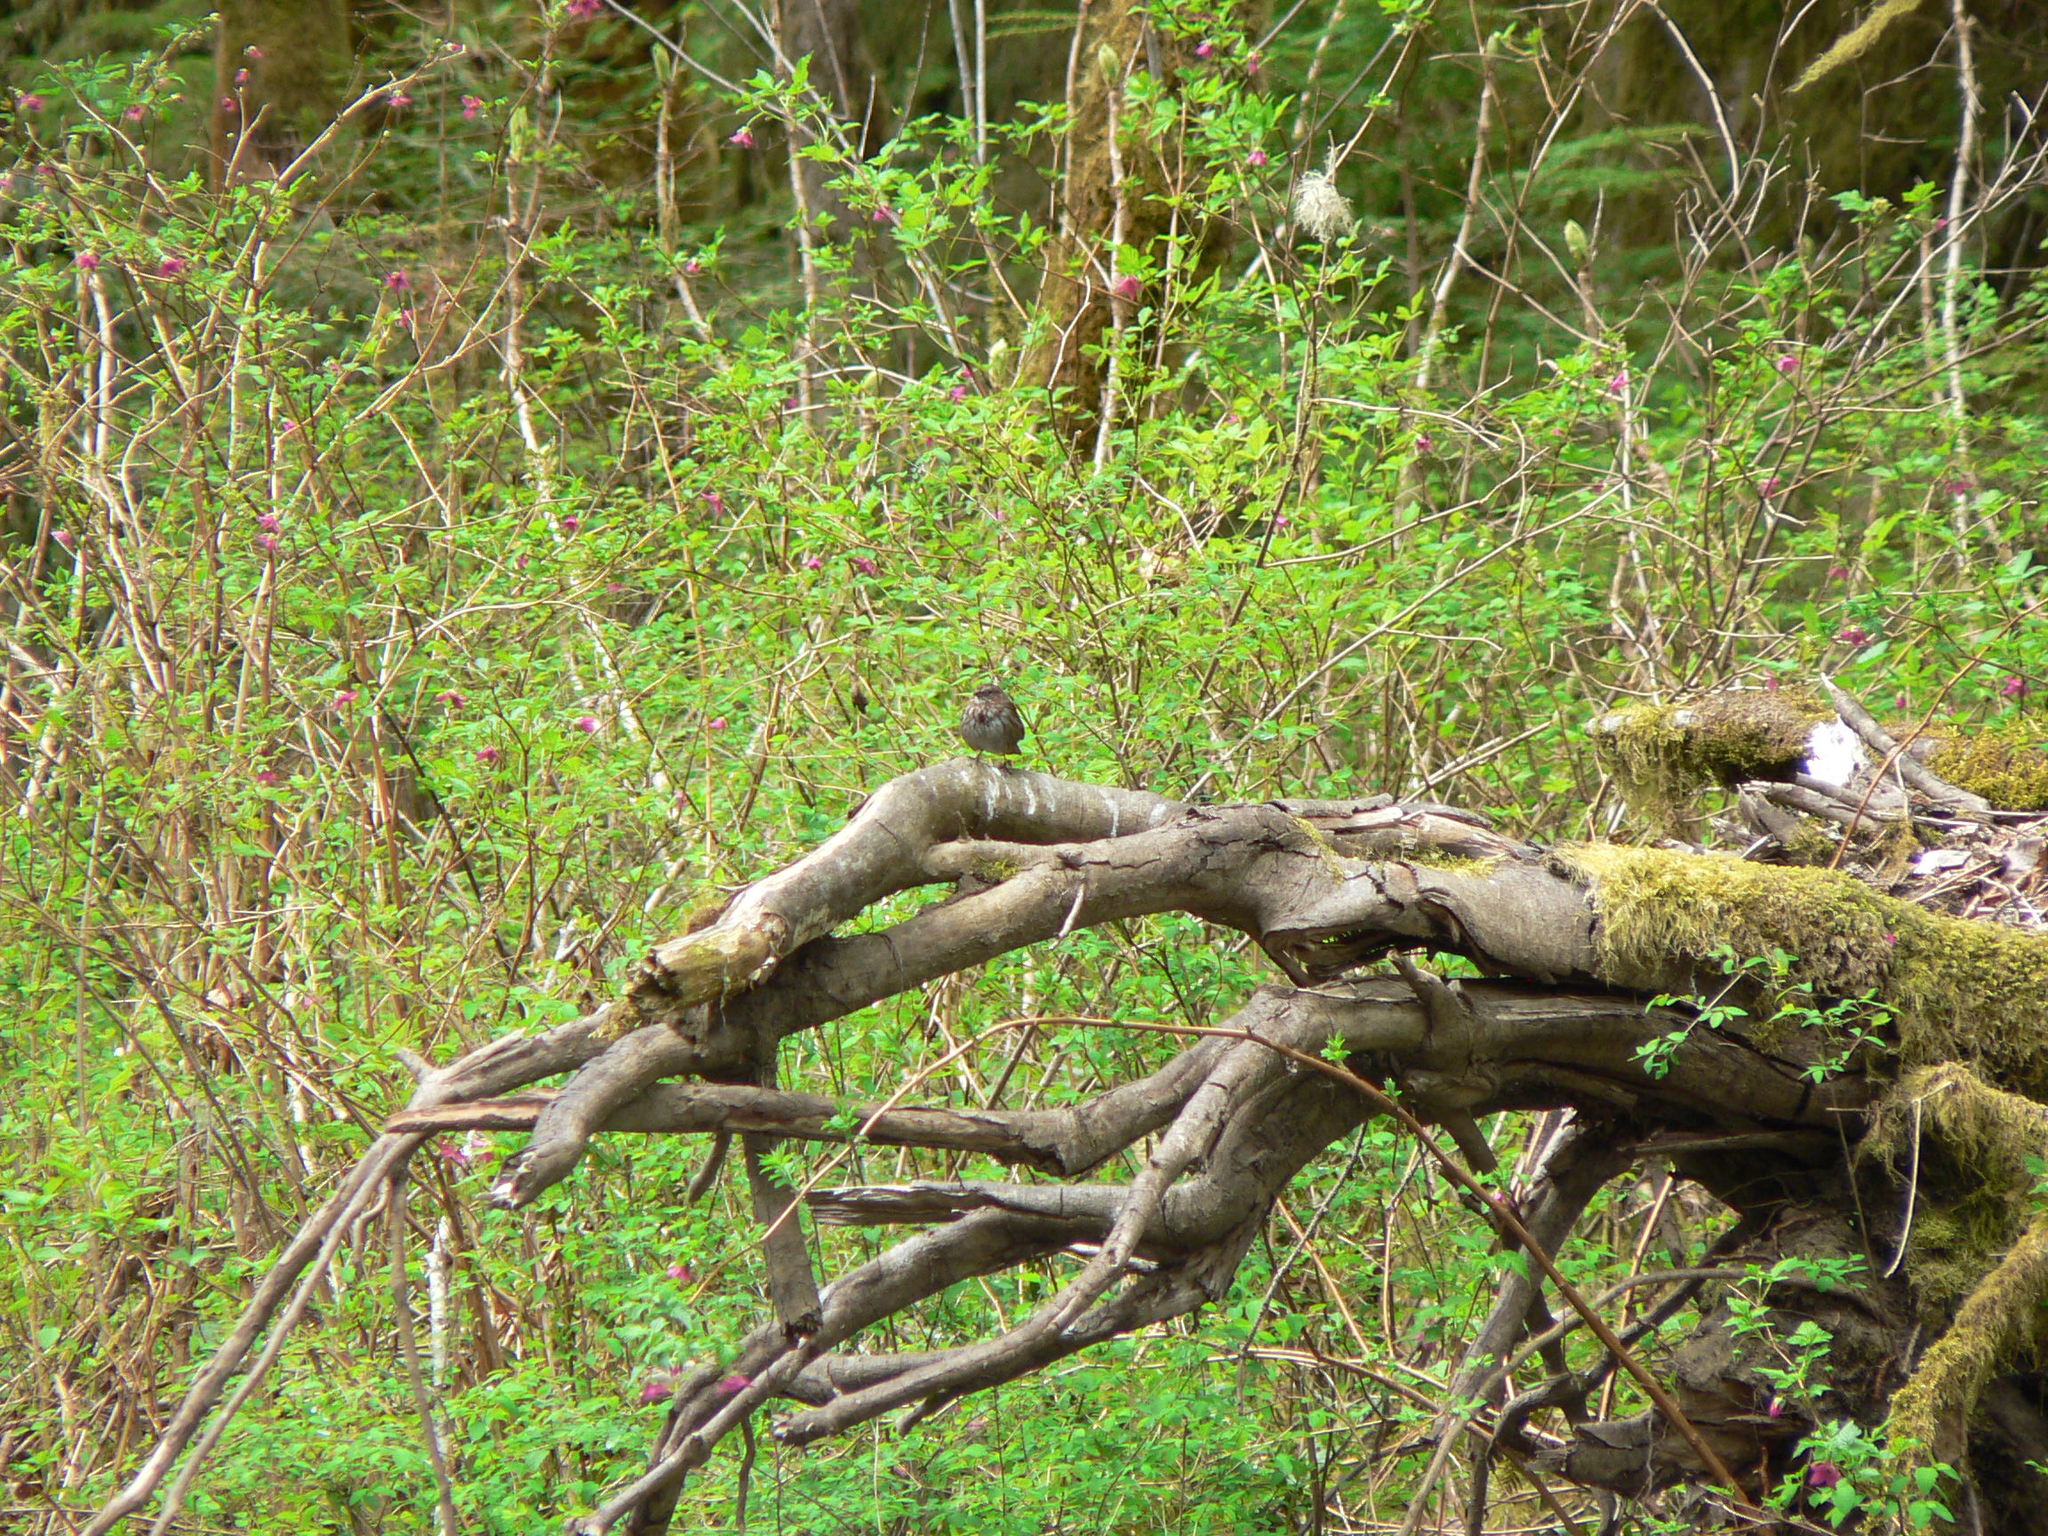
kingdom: Animalia
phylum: Chordata
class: Aves
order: Passeriformes
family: Passerellidae
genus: Melospiza
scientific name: Melospiza melodia
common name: Song sparrow
